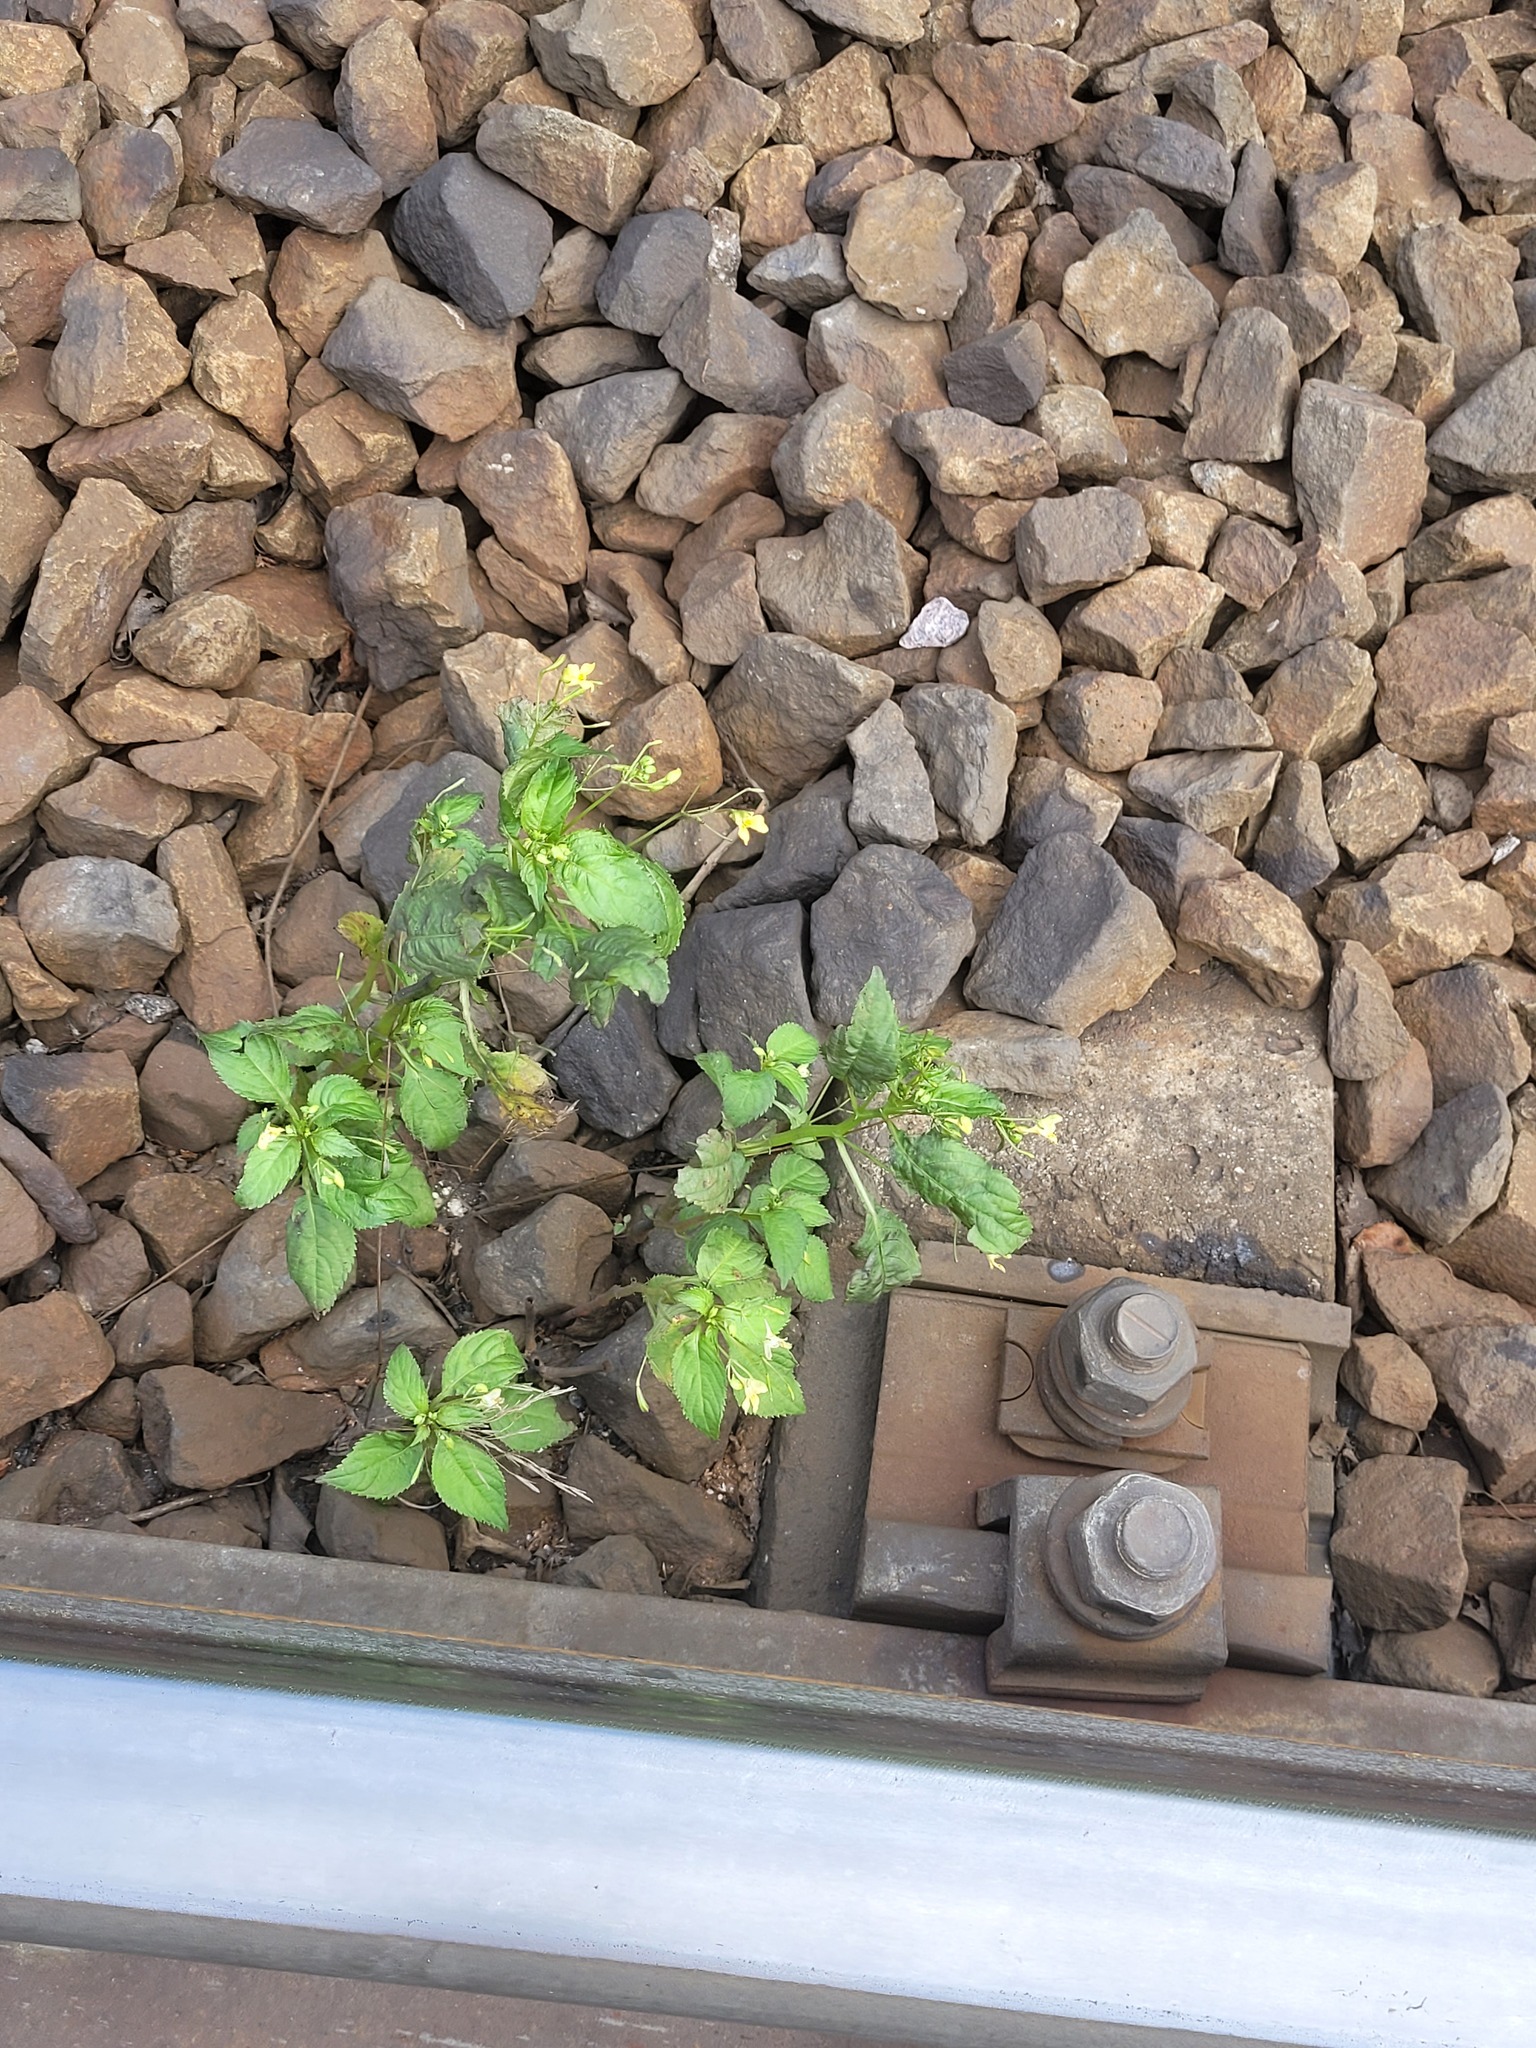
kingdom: Plantae
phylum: Tracheophyta
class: Magnoliopsida
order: Ericales
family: Balsaminaceae
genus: Impatiens
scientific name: Impatiens parviflora
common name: Small balsam
